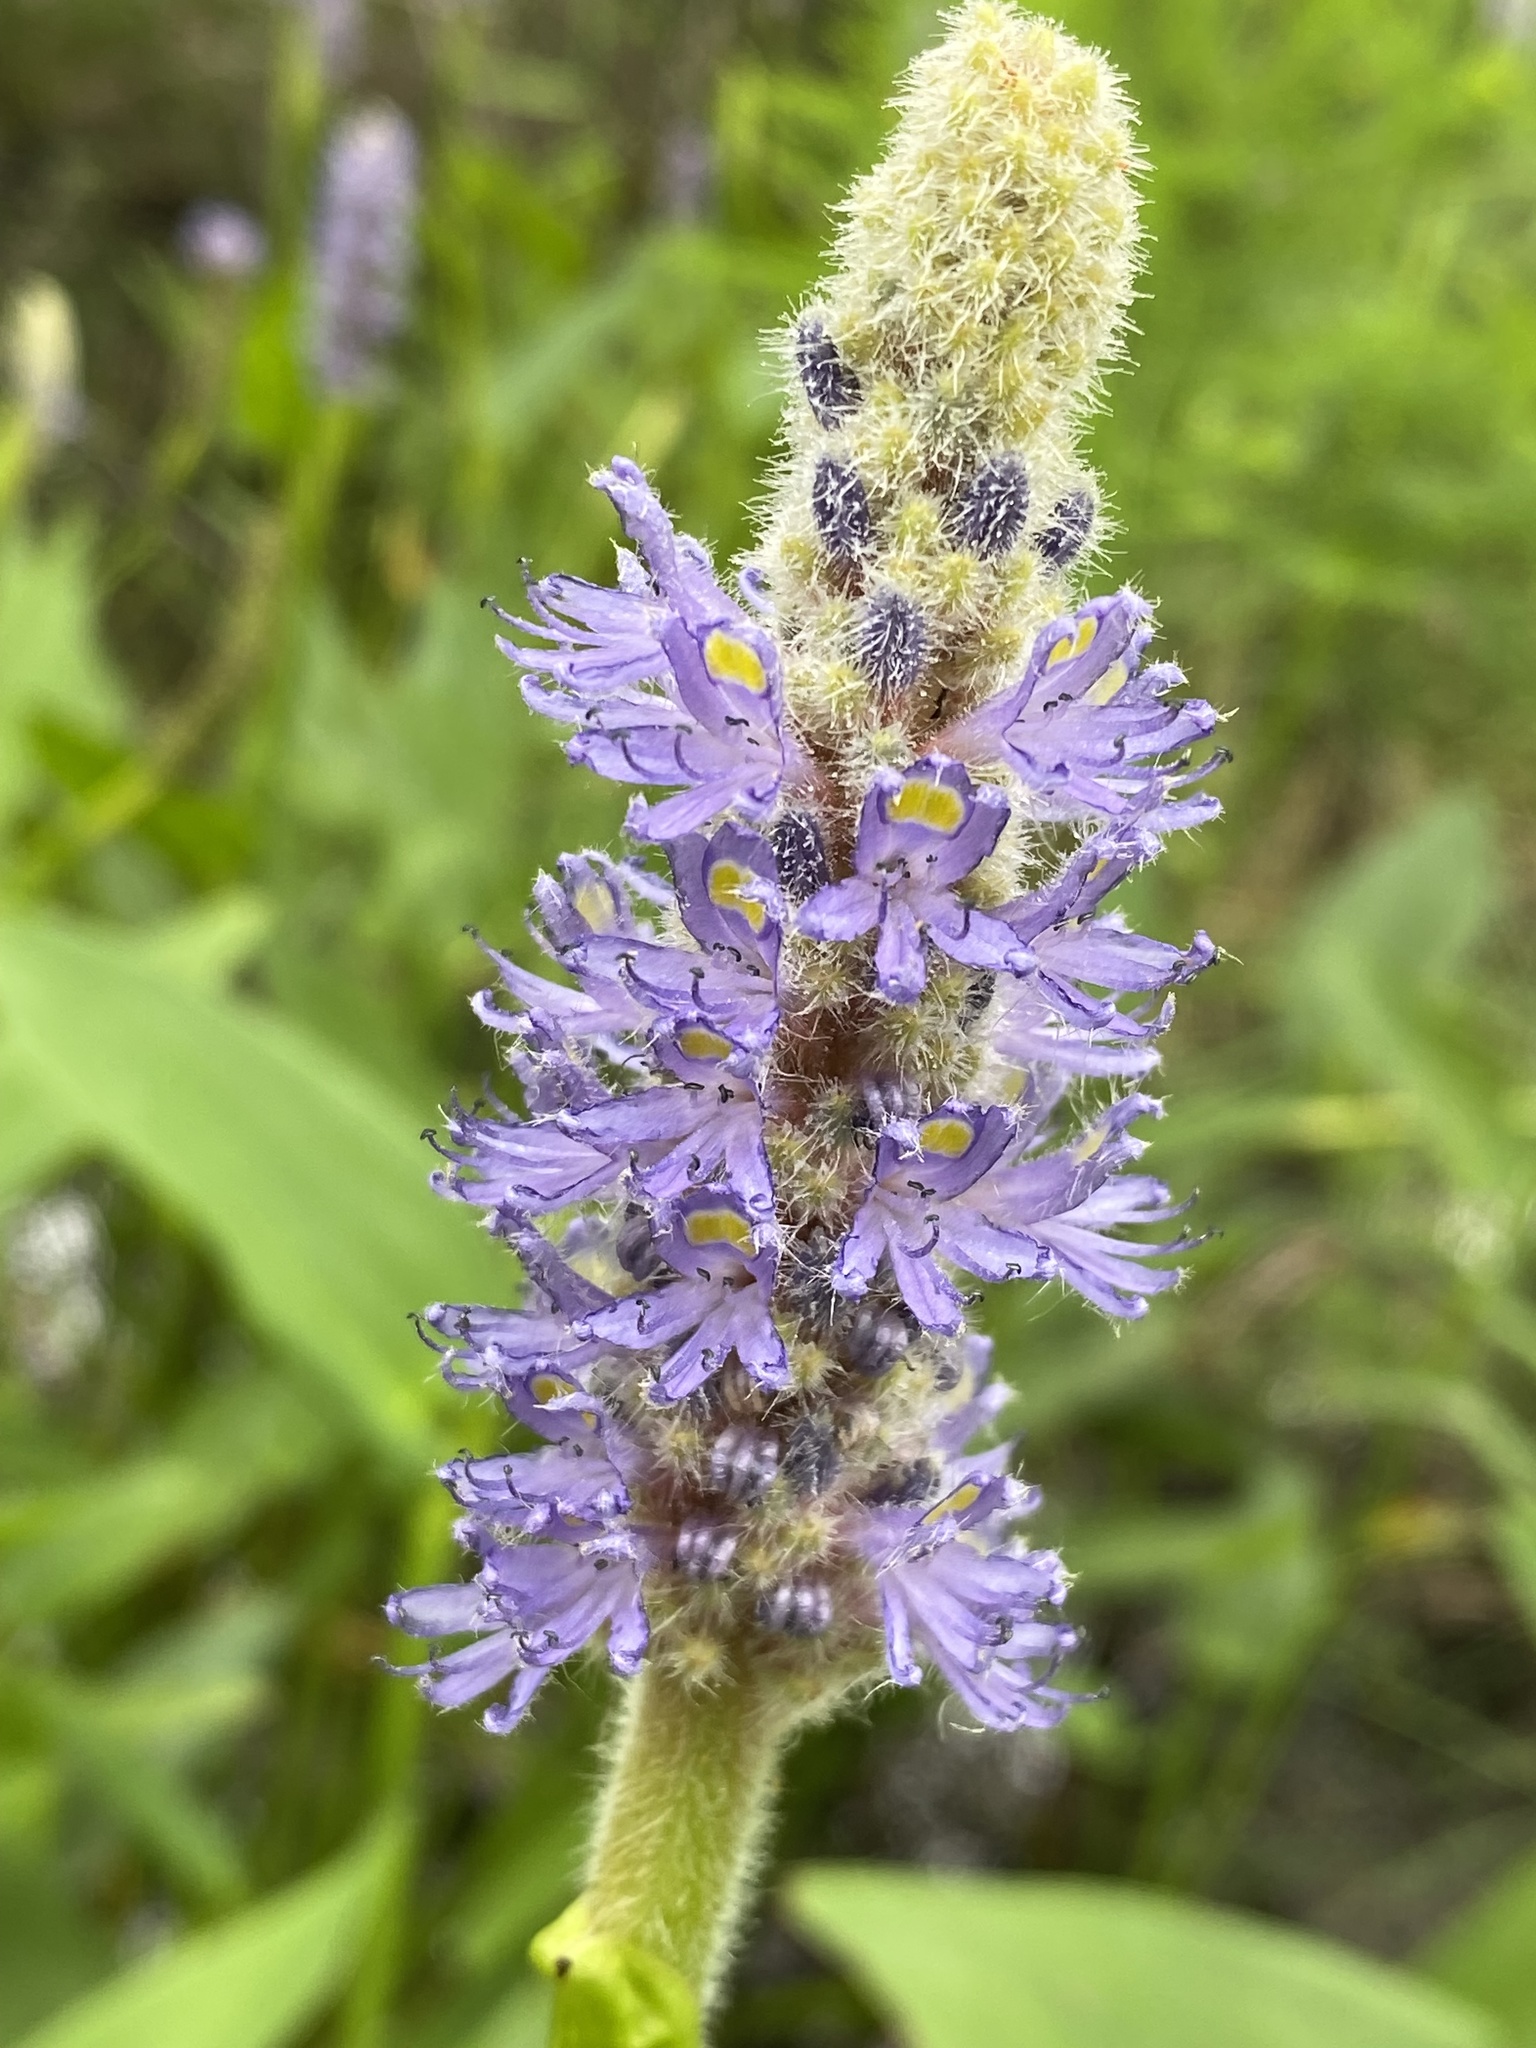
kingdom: Plantae
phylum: Tracheophyta
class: Liliopsida
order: Commelinales
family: Pontederiaceae
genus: Pontederia
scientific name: Pontederia cordata
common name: Pickerelweed
